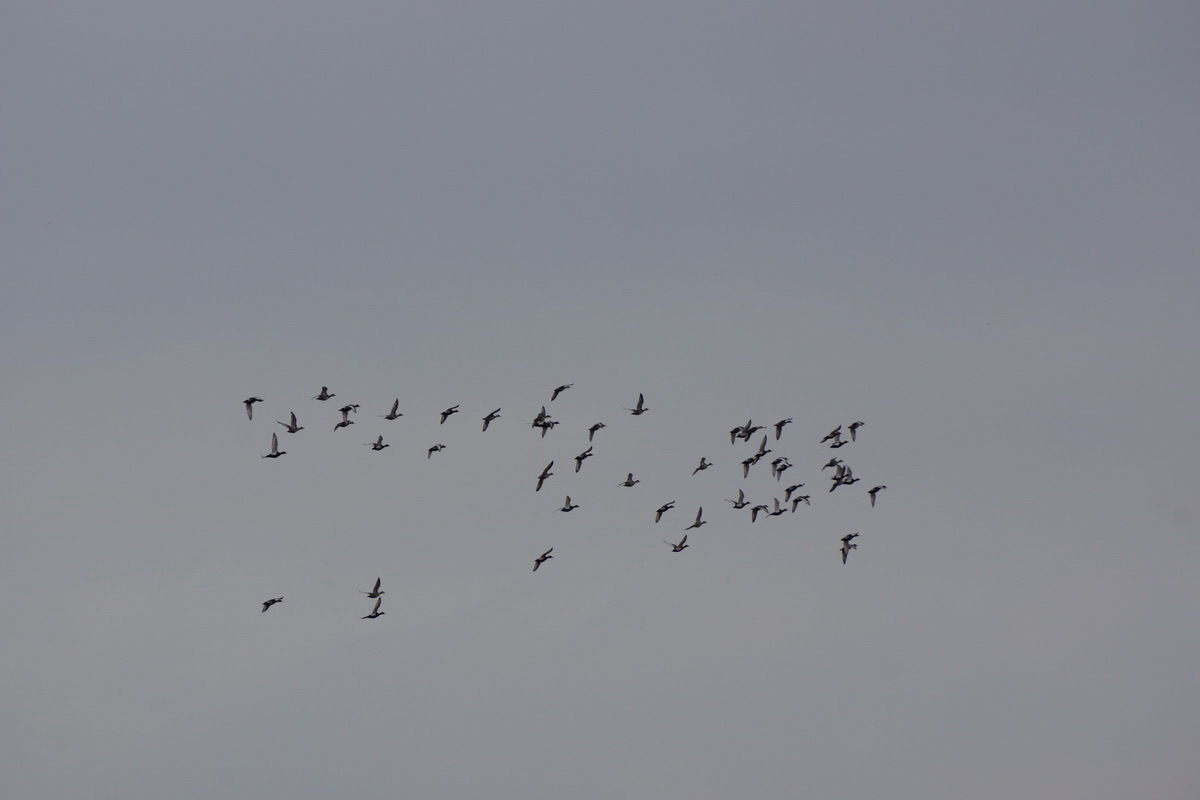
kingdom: Animalia
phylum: Chordata
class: Aves
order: Anseriformes
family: Anatidae
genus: Netta
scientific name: Netta rufina
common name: Red-crested pochard
